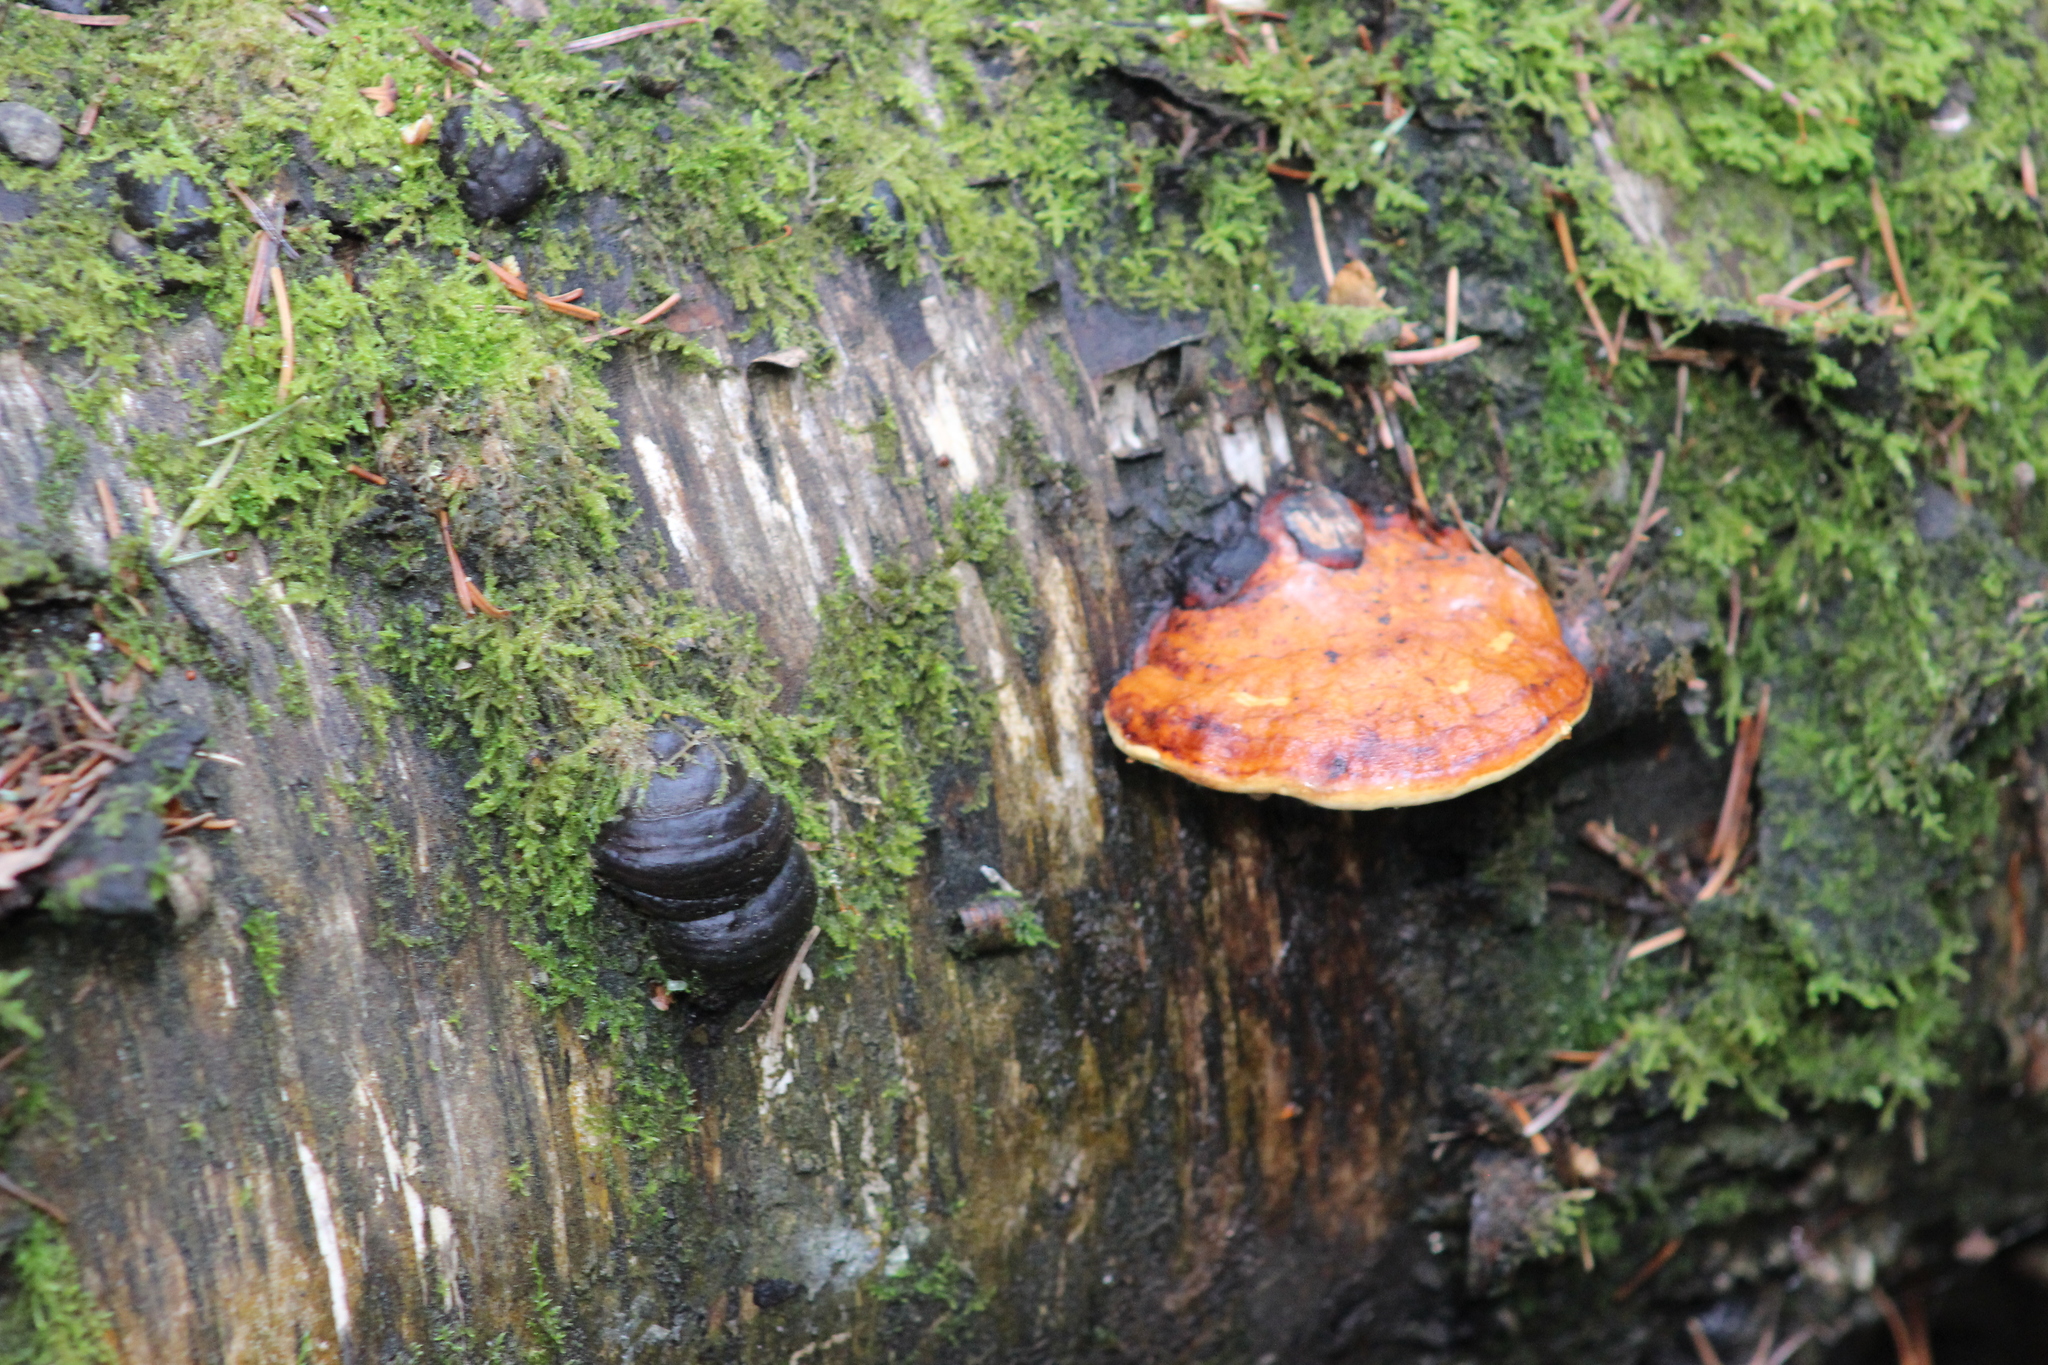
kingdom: Fungi
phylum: Basidiomycota
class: Agaricomycetes
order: Polyporales
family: Fomitopsidaceae
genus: Fomitopsis
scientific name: Fomitopsis pinicola
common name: Red-belted bracket
